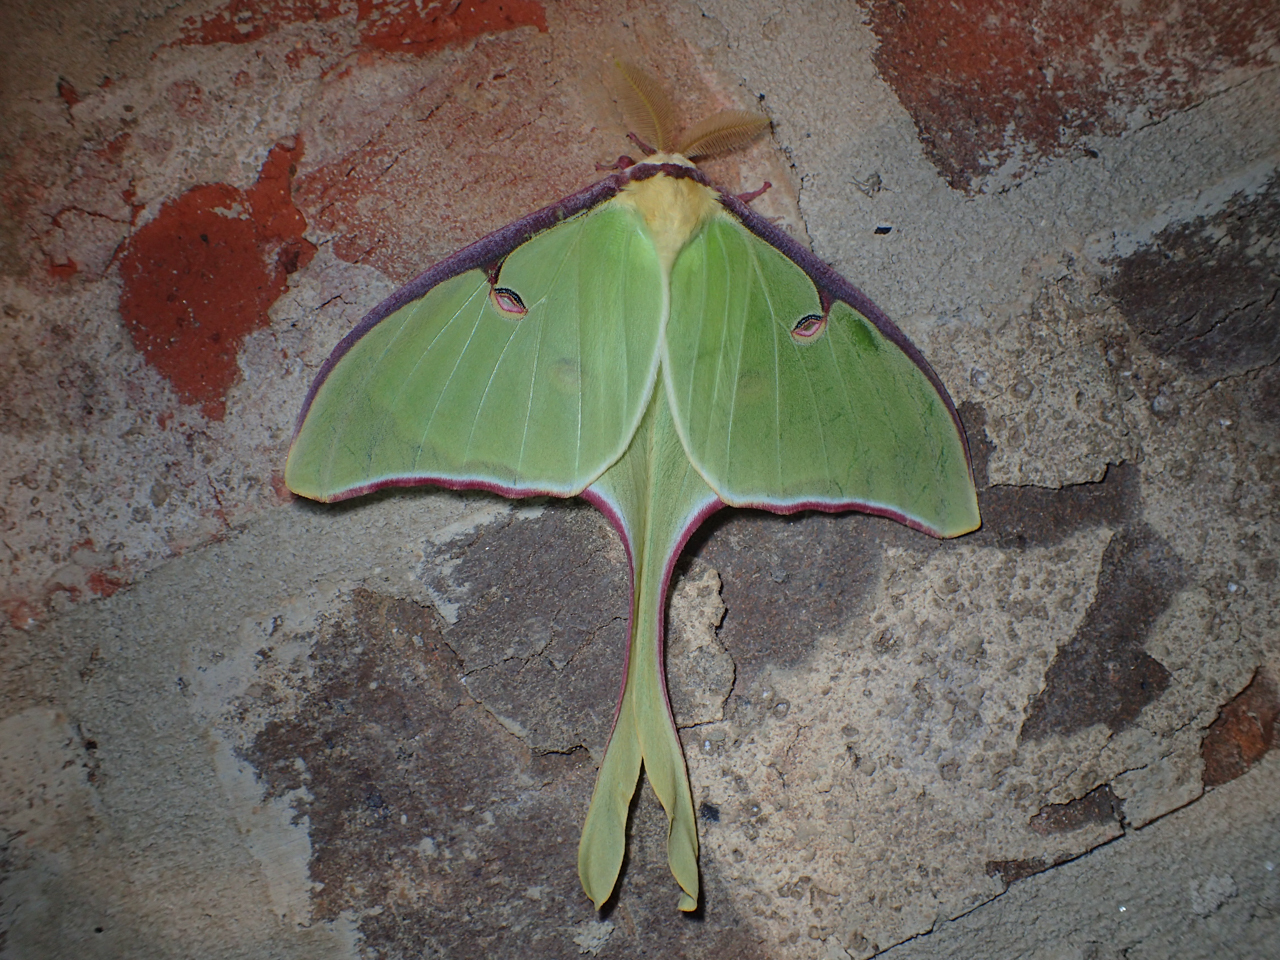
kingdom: Animalia
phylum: Arthropoda
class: Insecta
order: Lepidoptera
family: Saturniidae
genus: Actias
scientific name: Actias luna
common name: Luna moth
